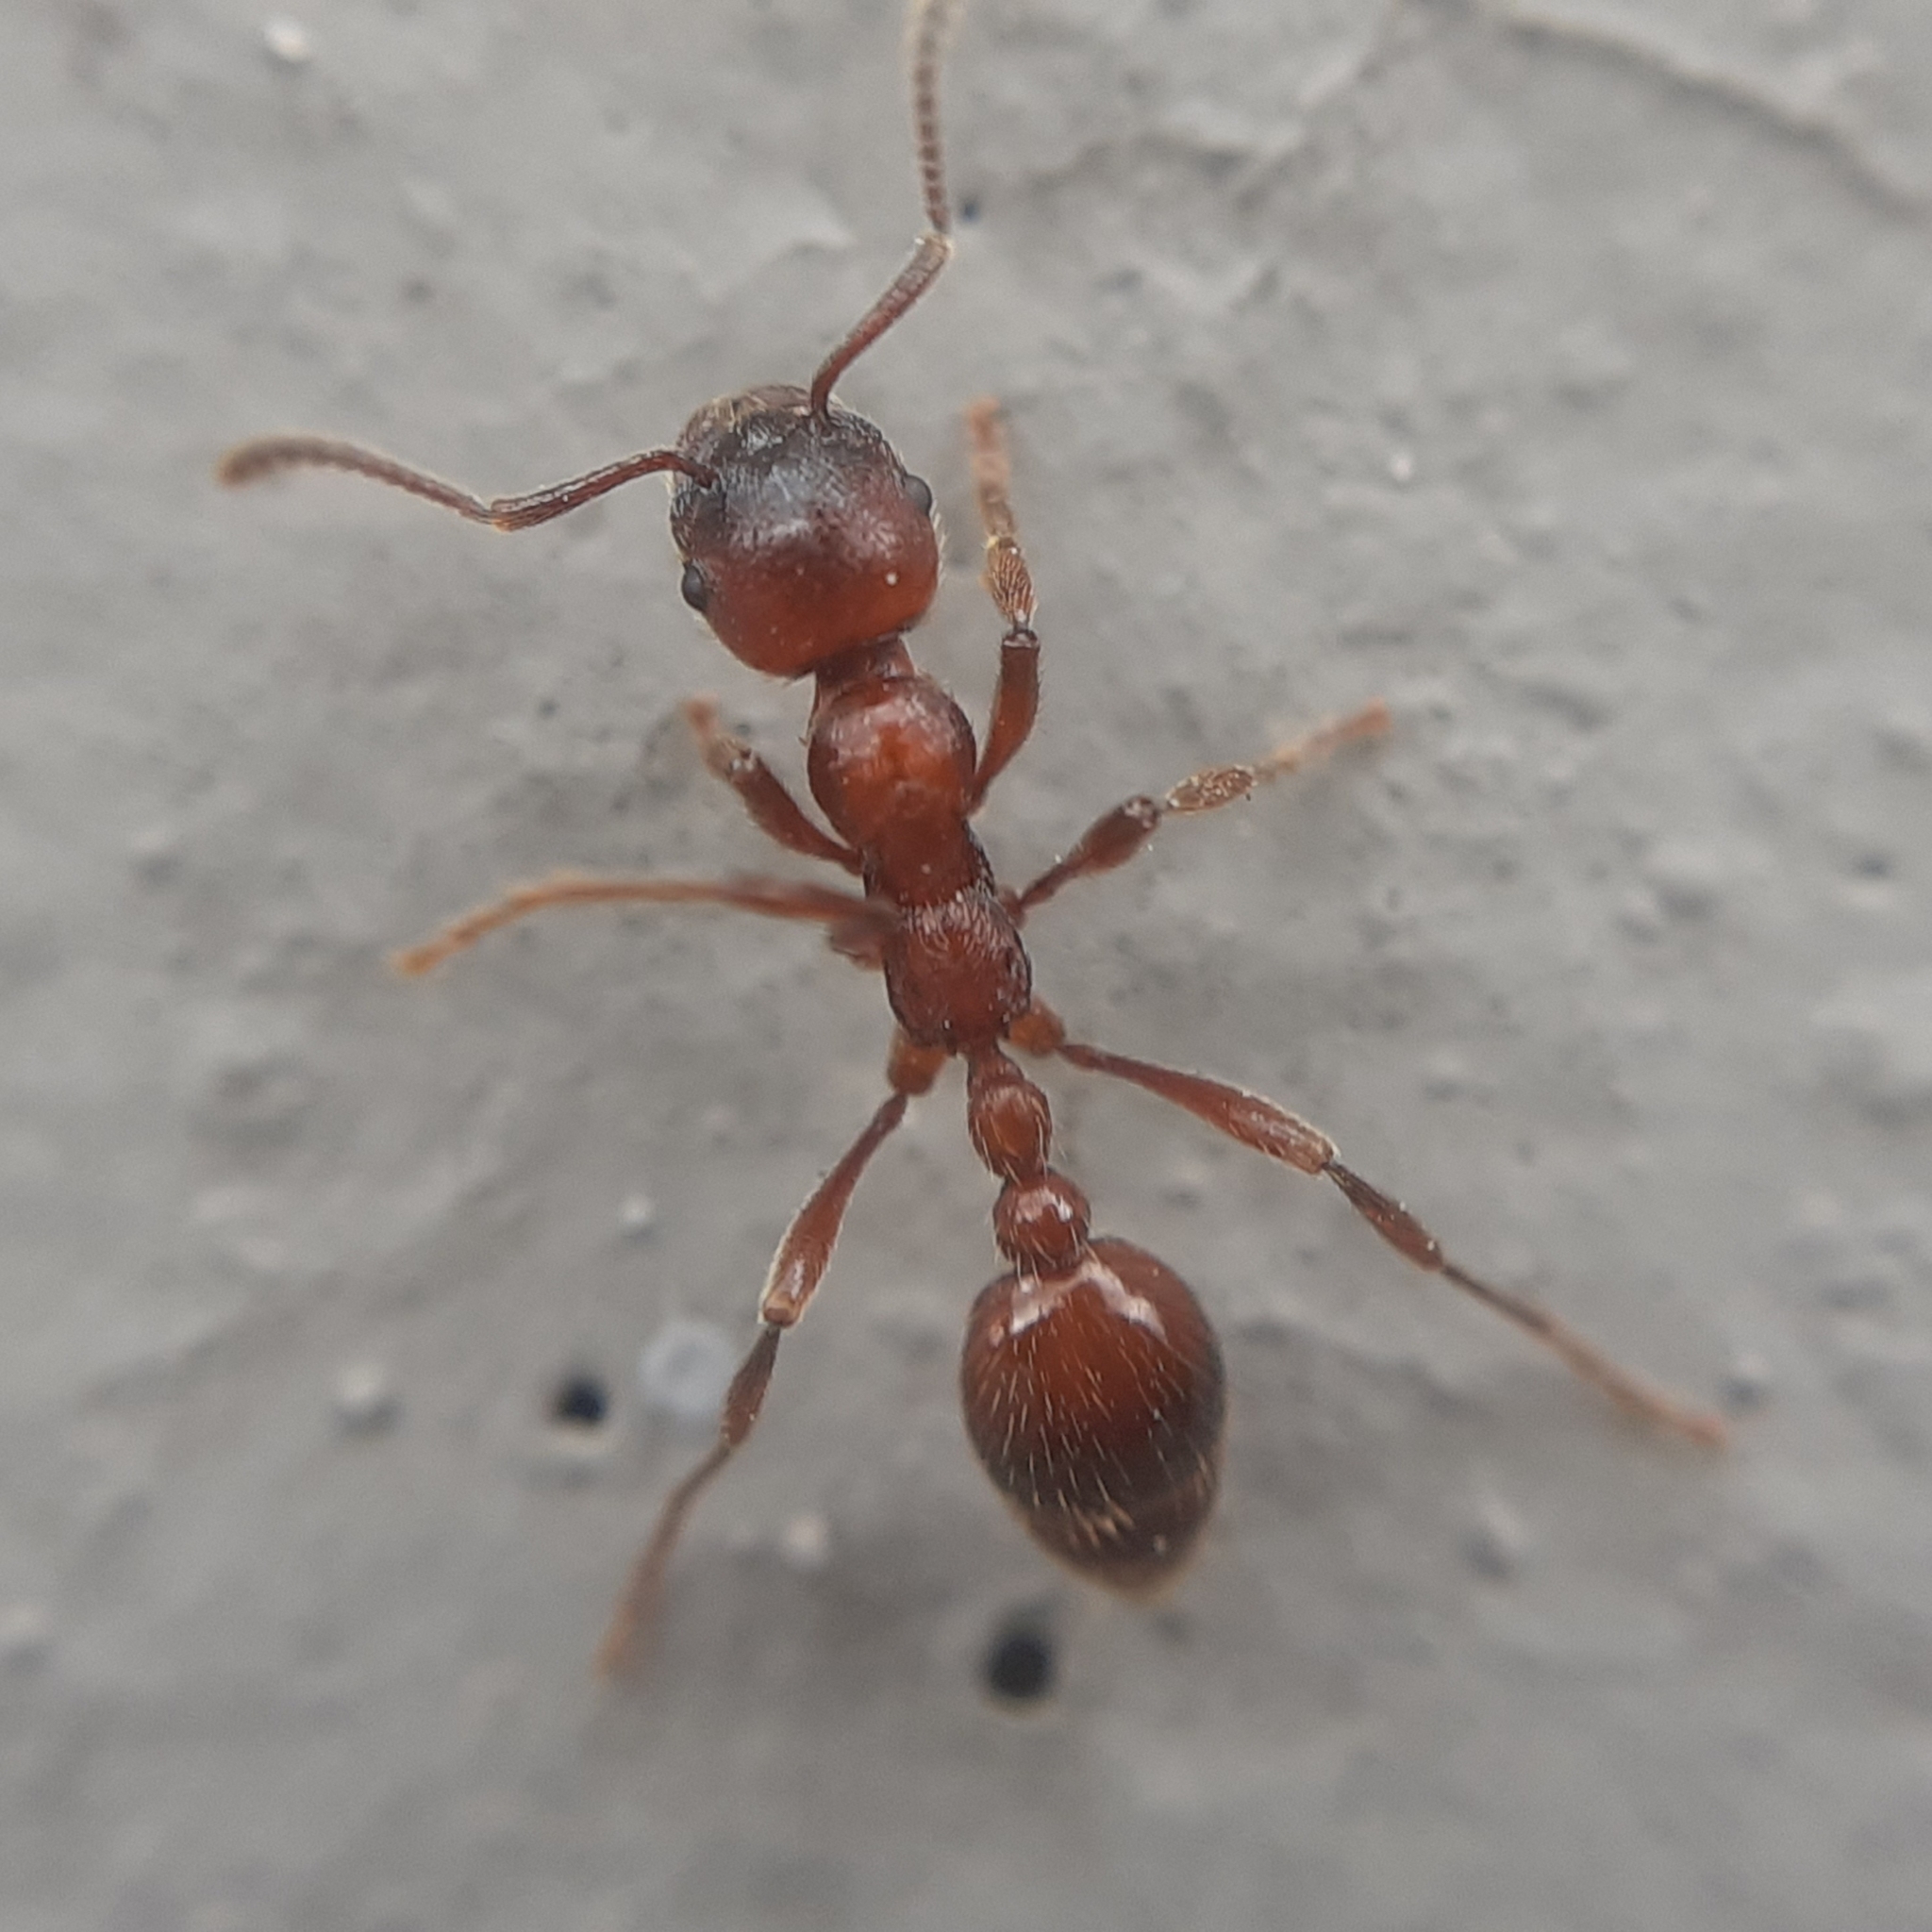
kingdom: Animalia
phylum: Arthropoda
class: Insecta
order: Hymenoptera
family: Formicidae
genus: Manica
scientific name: Manica rubida
